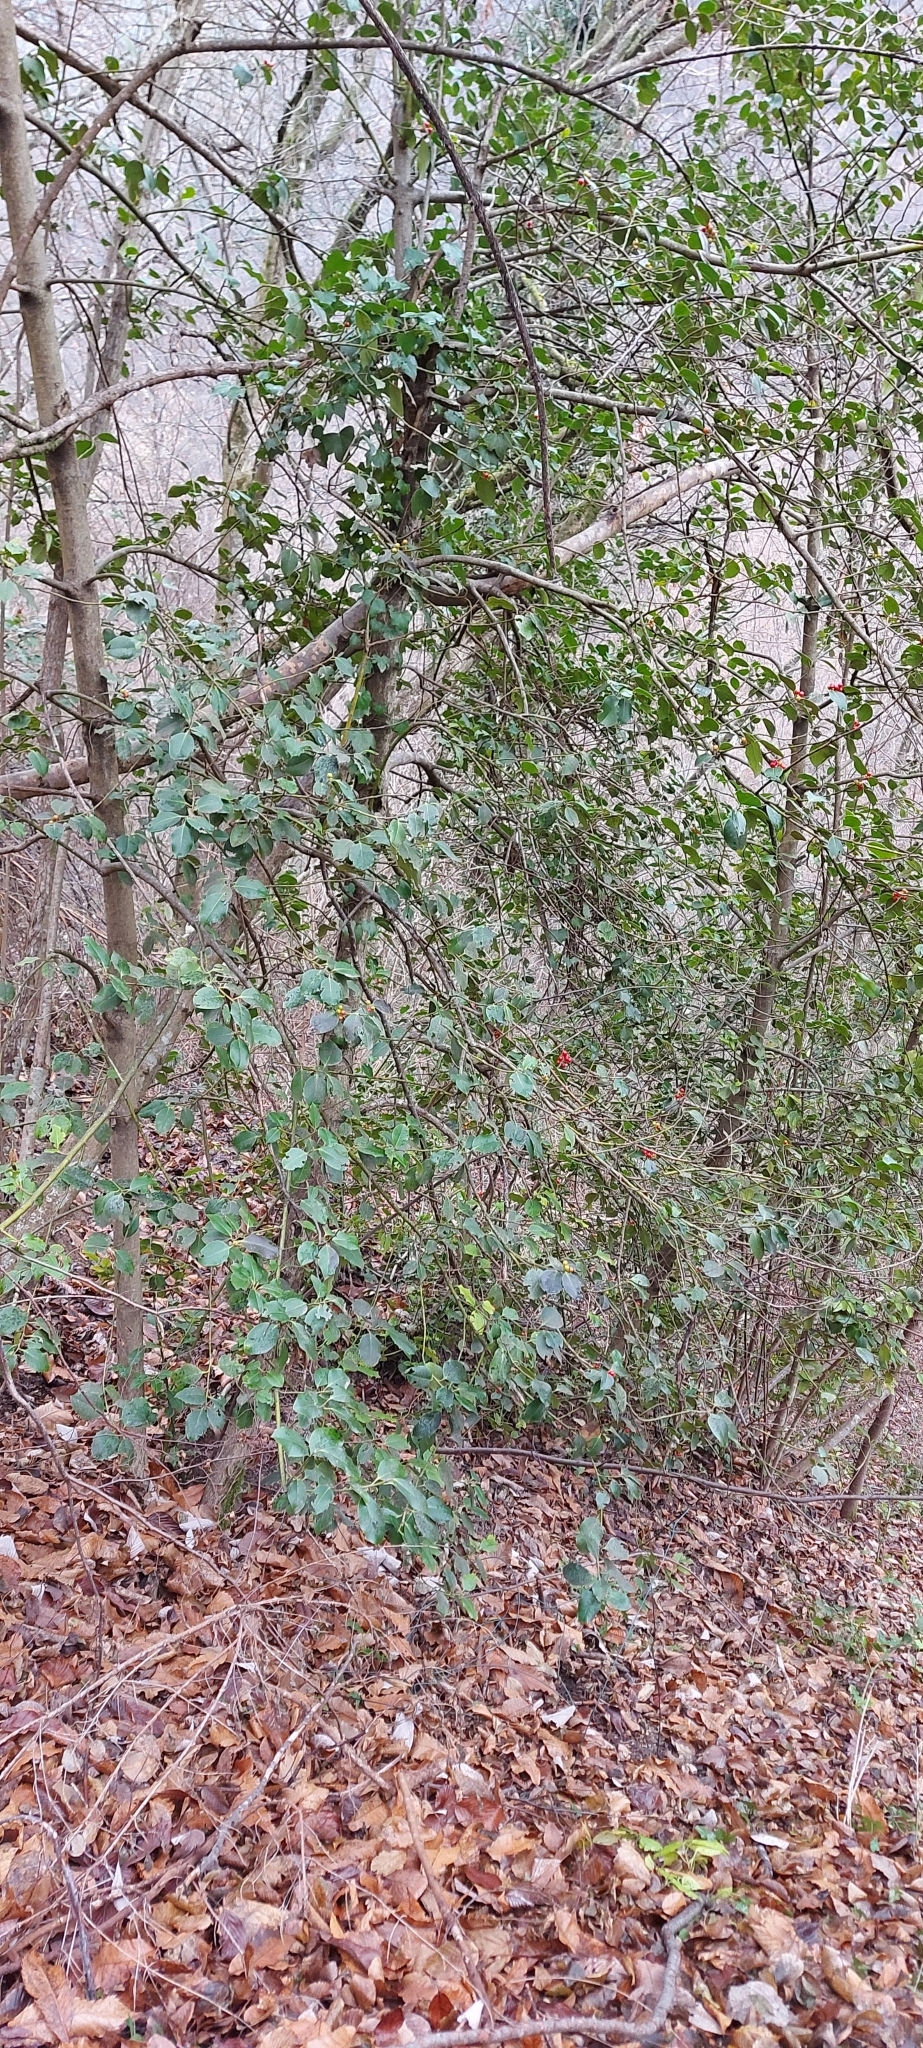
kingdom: Plantae
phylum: Tracheophyta
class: Magnoliopsida
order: Aquifoliales
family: Aquifoliaceae
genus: Ilex
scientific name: Ilex aquifolium
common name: English holly
